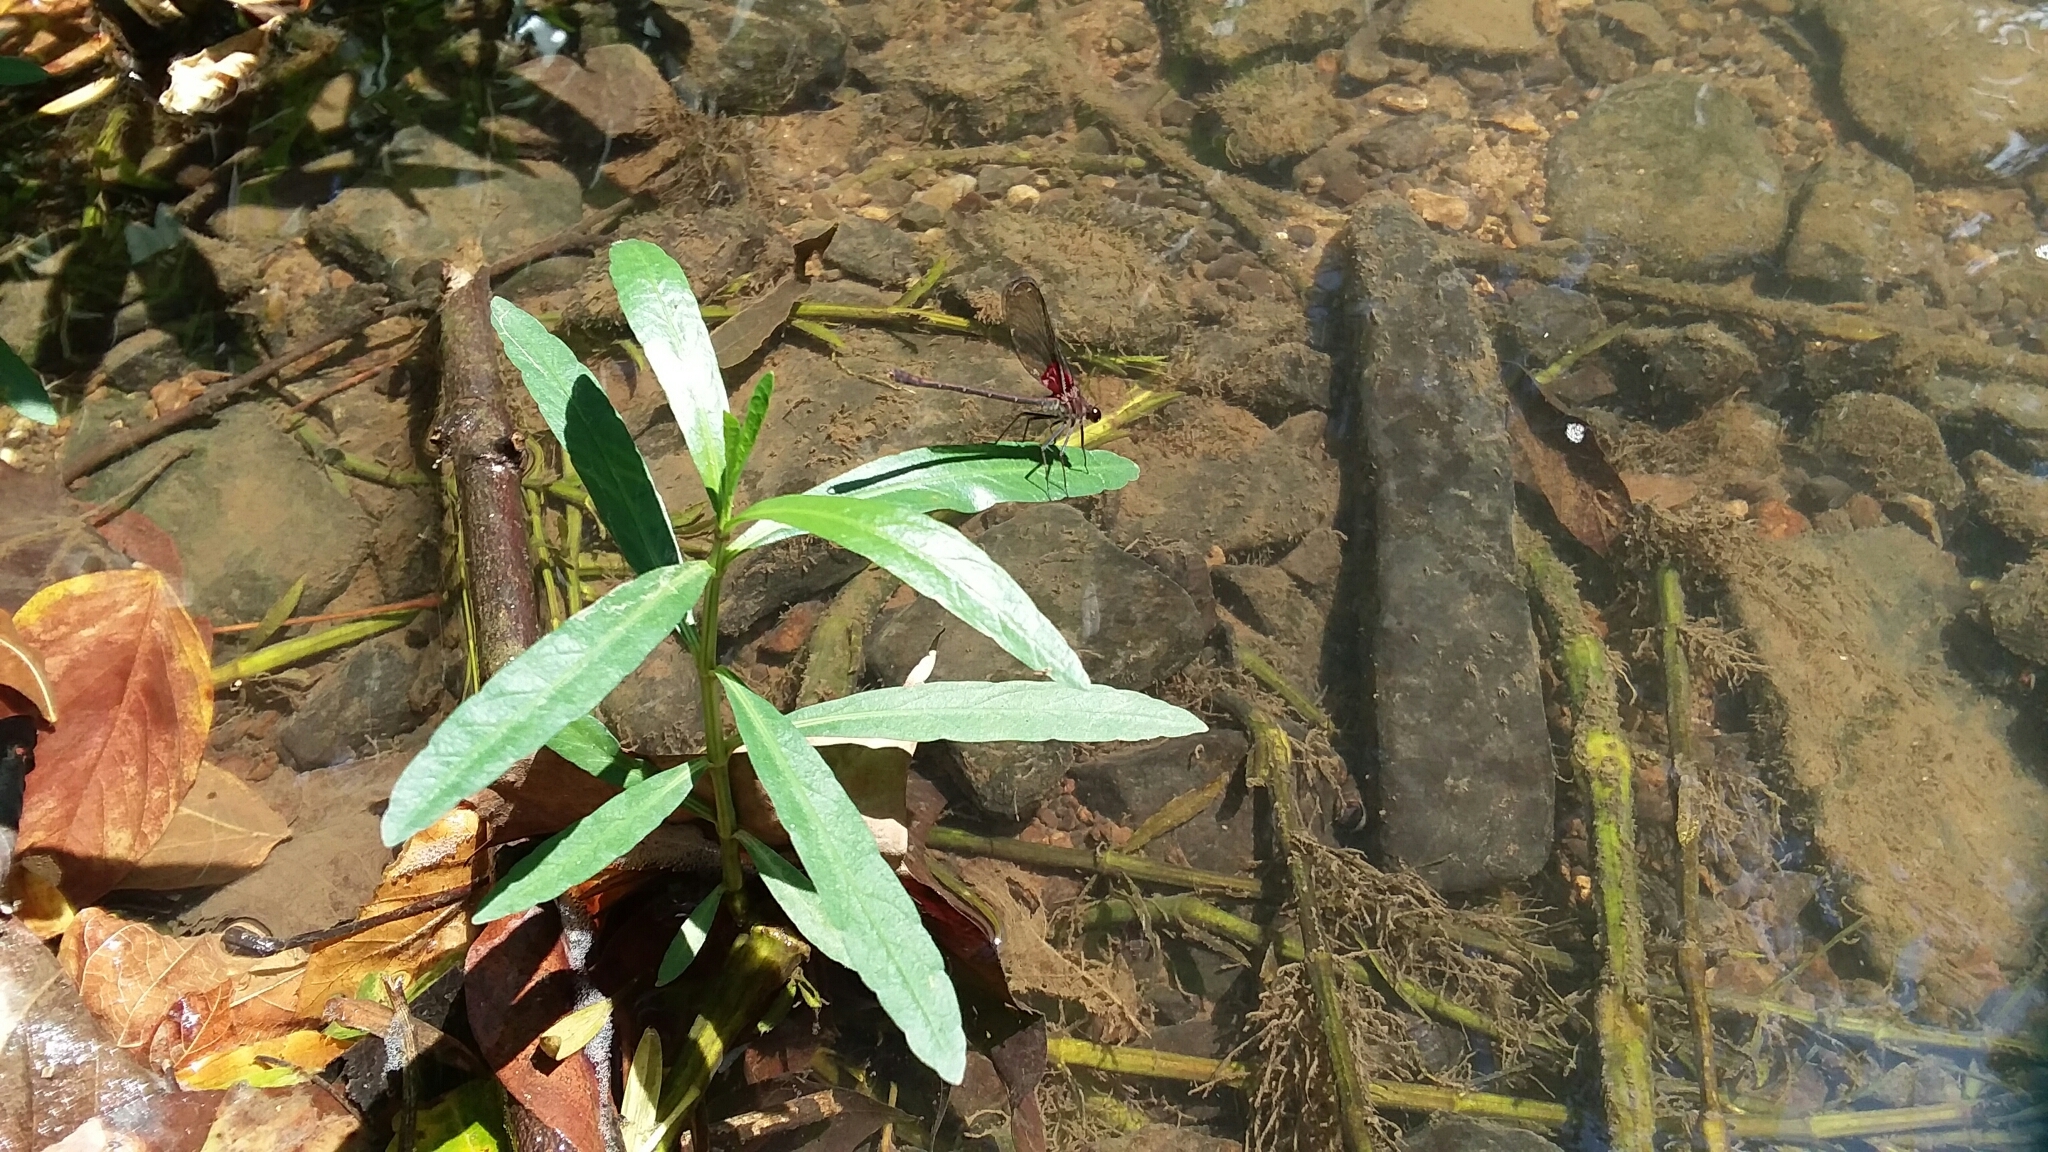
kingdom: Animalia
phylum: Arthropoda
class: Insecta
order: Odonata
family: Calopterygidae
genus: Hetaerina
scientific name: Hetaerina americana
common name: American rubyspot
